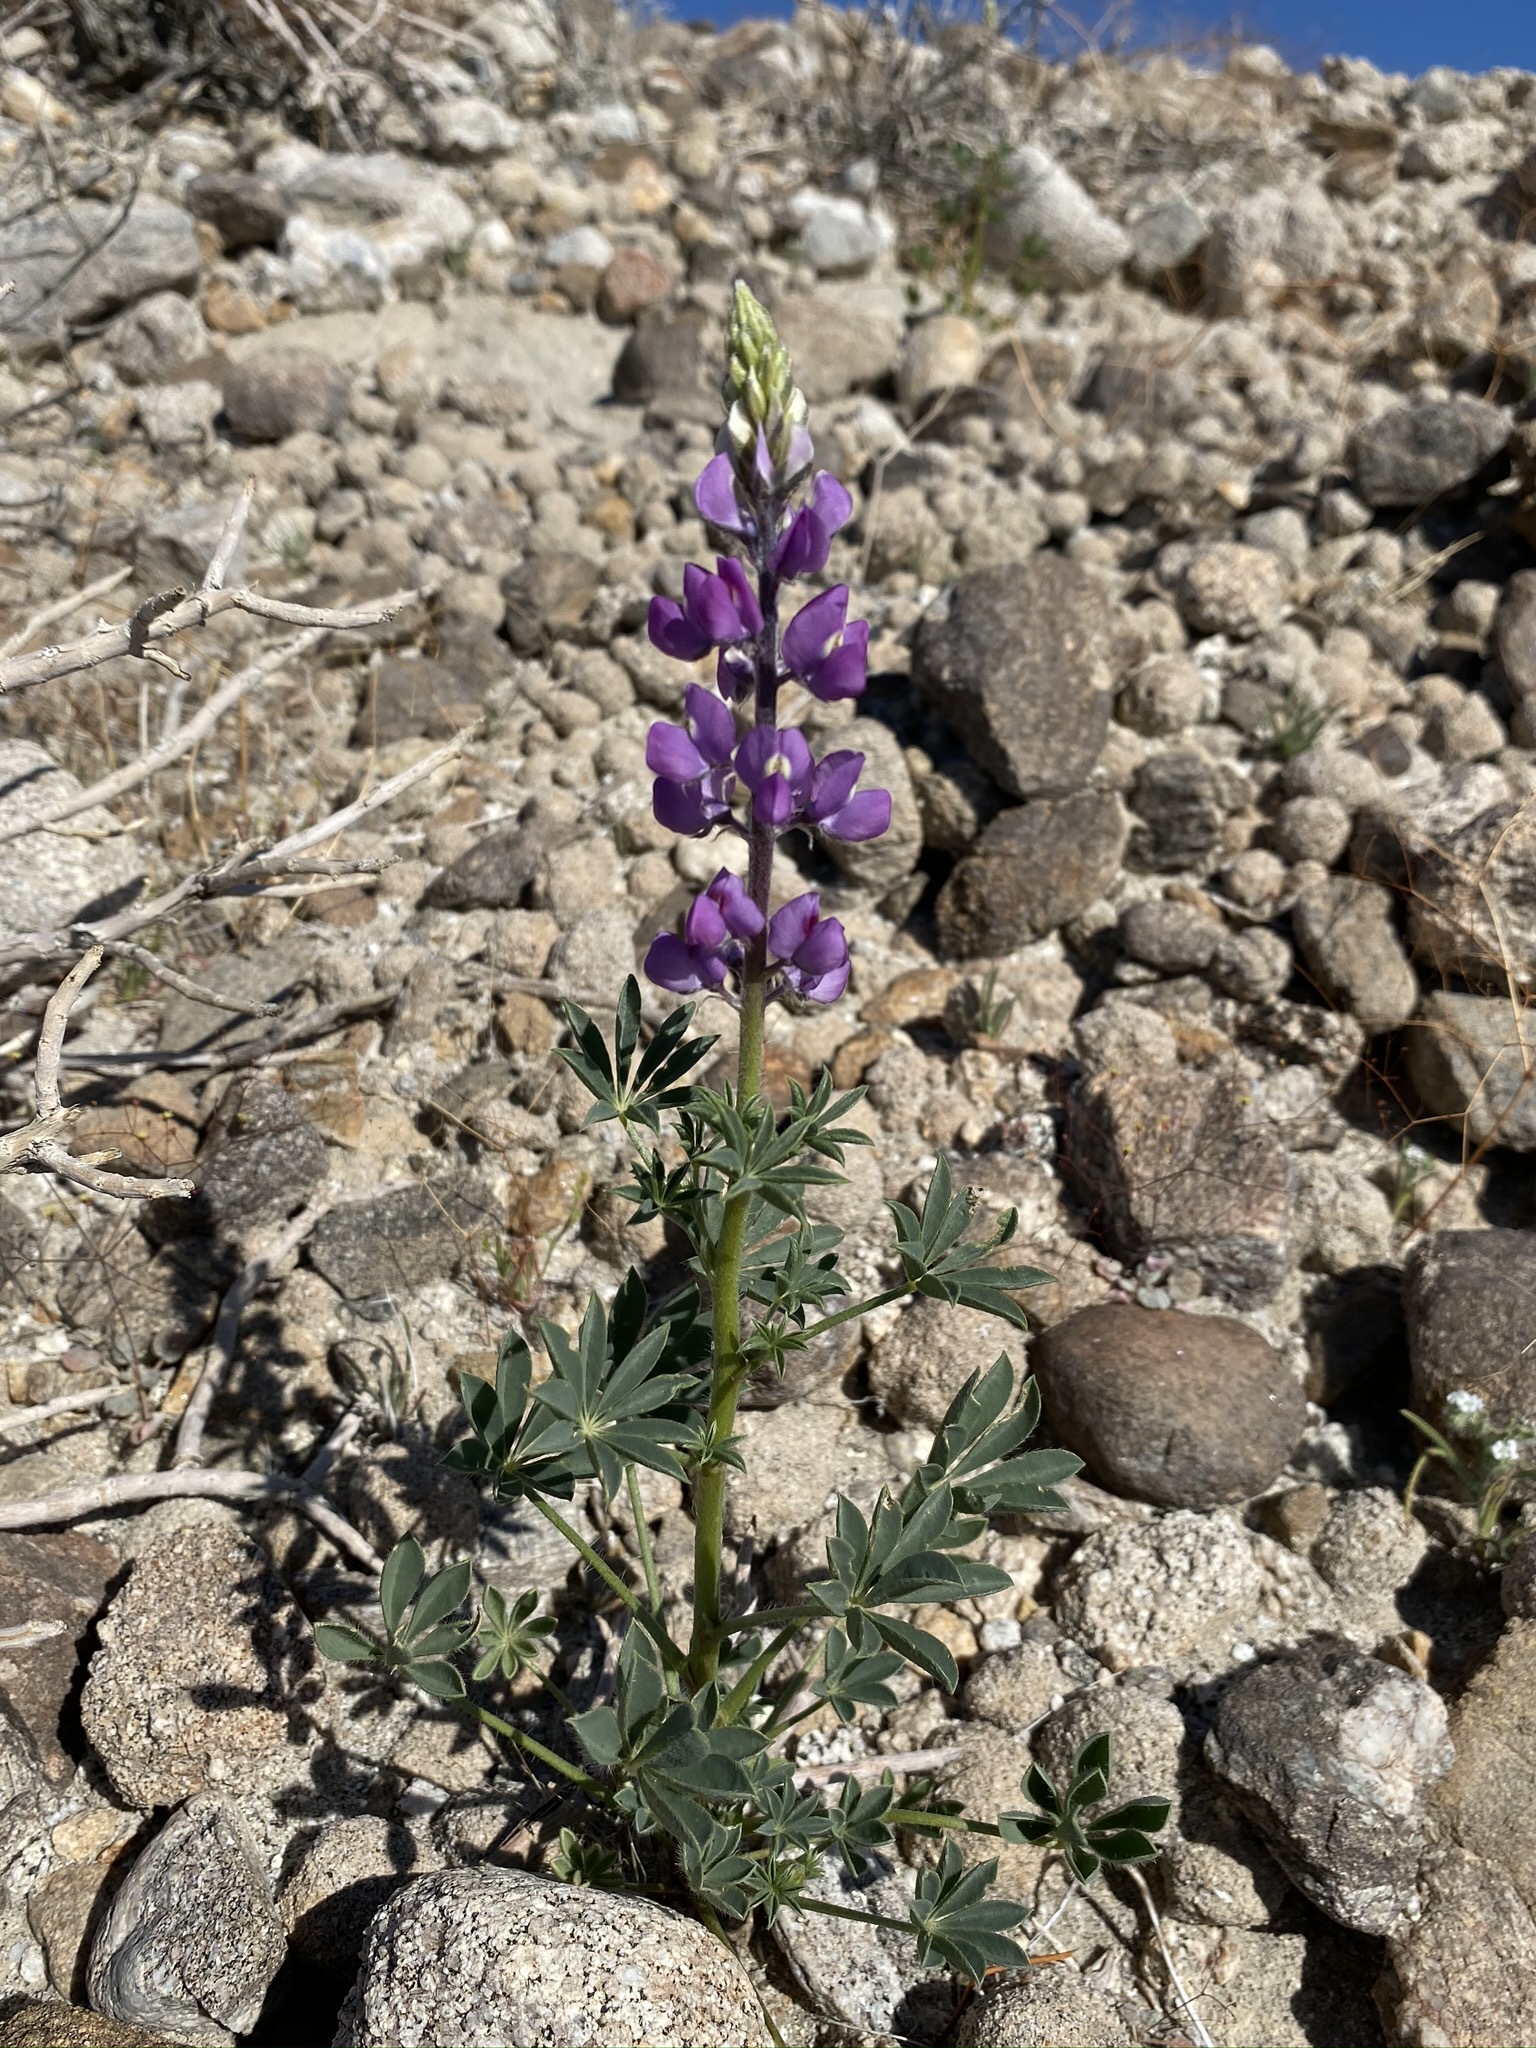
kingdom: Plantae
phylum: Tracheophyta
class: Magnoliopsida
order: Fabales
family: Fabaceae
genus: Lupinus
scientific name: Lupinus arizonicus
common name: Arizona lupine
